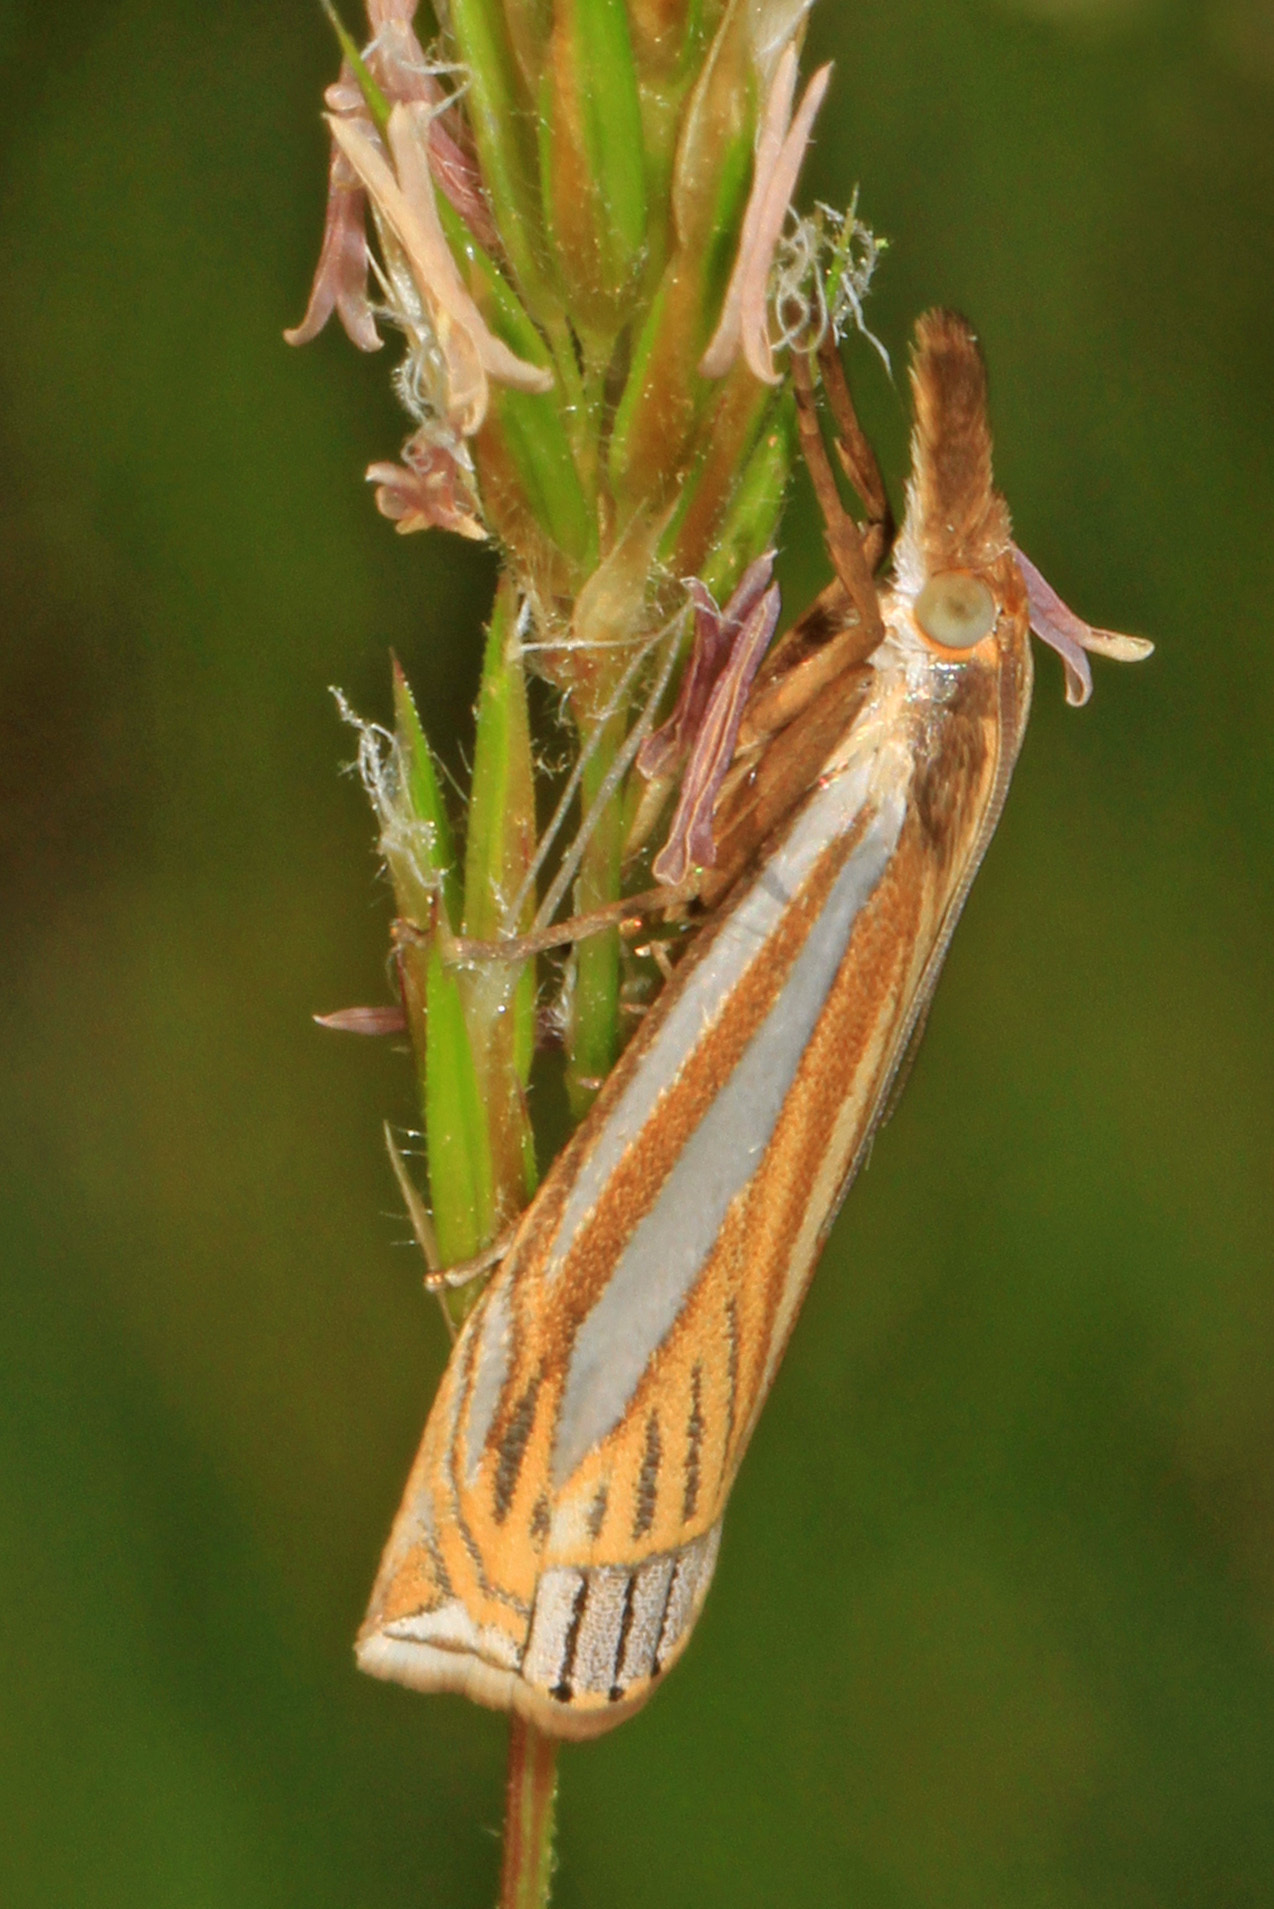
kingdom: Animalia
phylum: Arthropoda
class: Insecta
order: Lepidoptera
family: Crambidae
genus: Crambus
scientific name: Crambus laqueatellus
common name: Eastern grass-veneer
